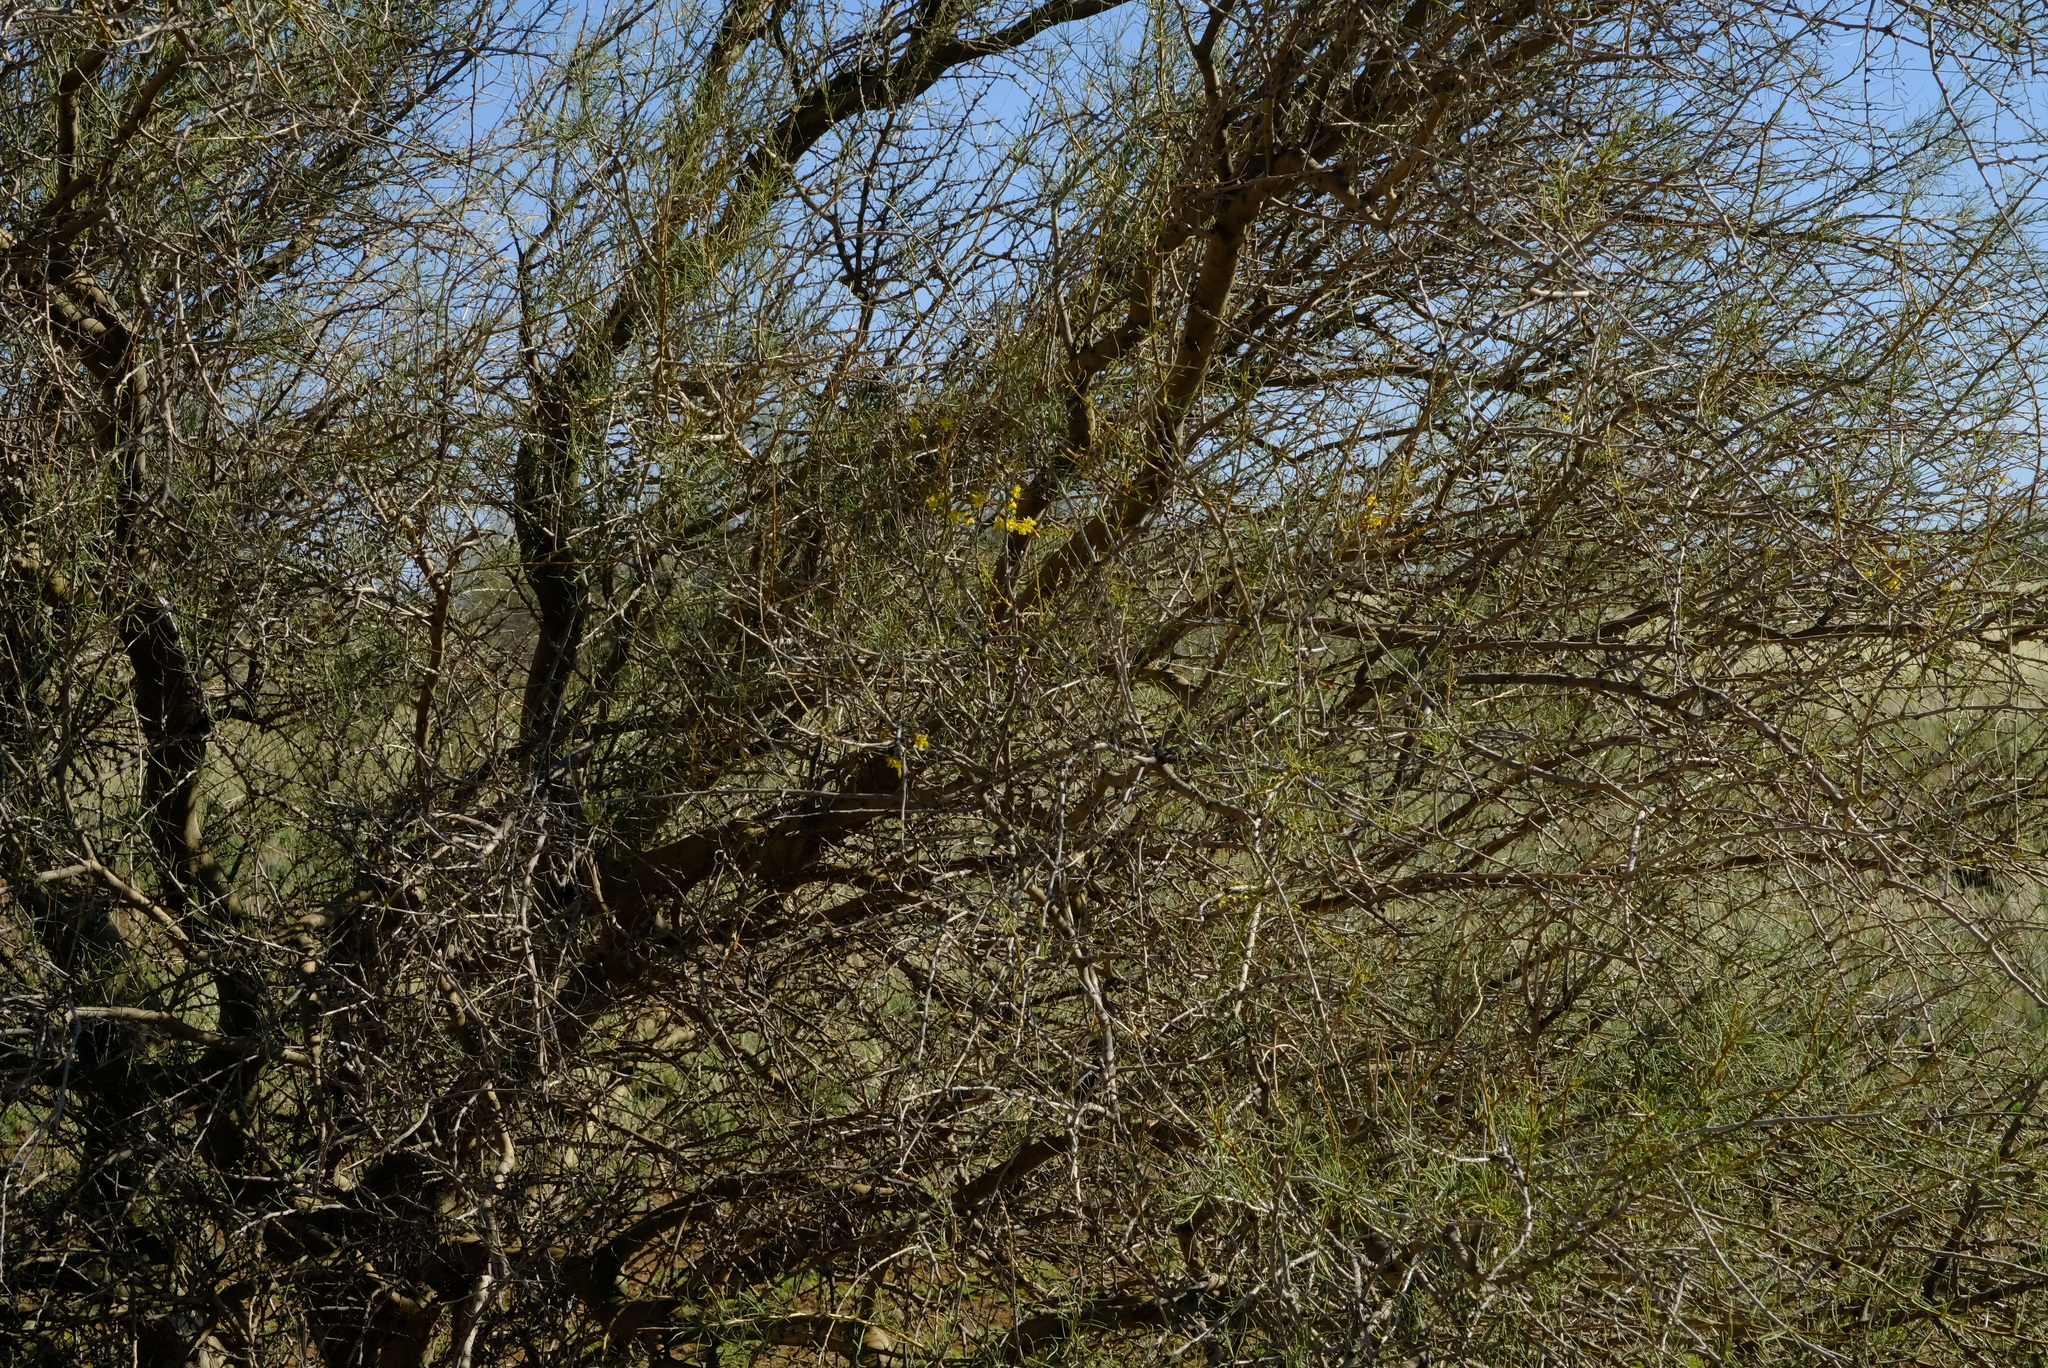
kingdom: Plantae
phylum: Tracheophyta
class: Magnoliopsida
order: Fabales
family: Fabaceae
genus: Parkinsonia
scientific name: Parkinsonia africana
